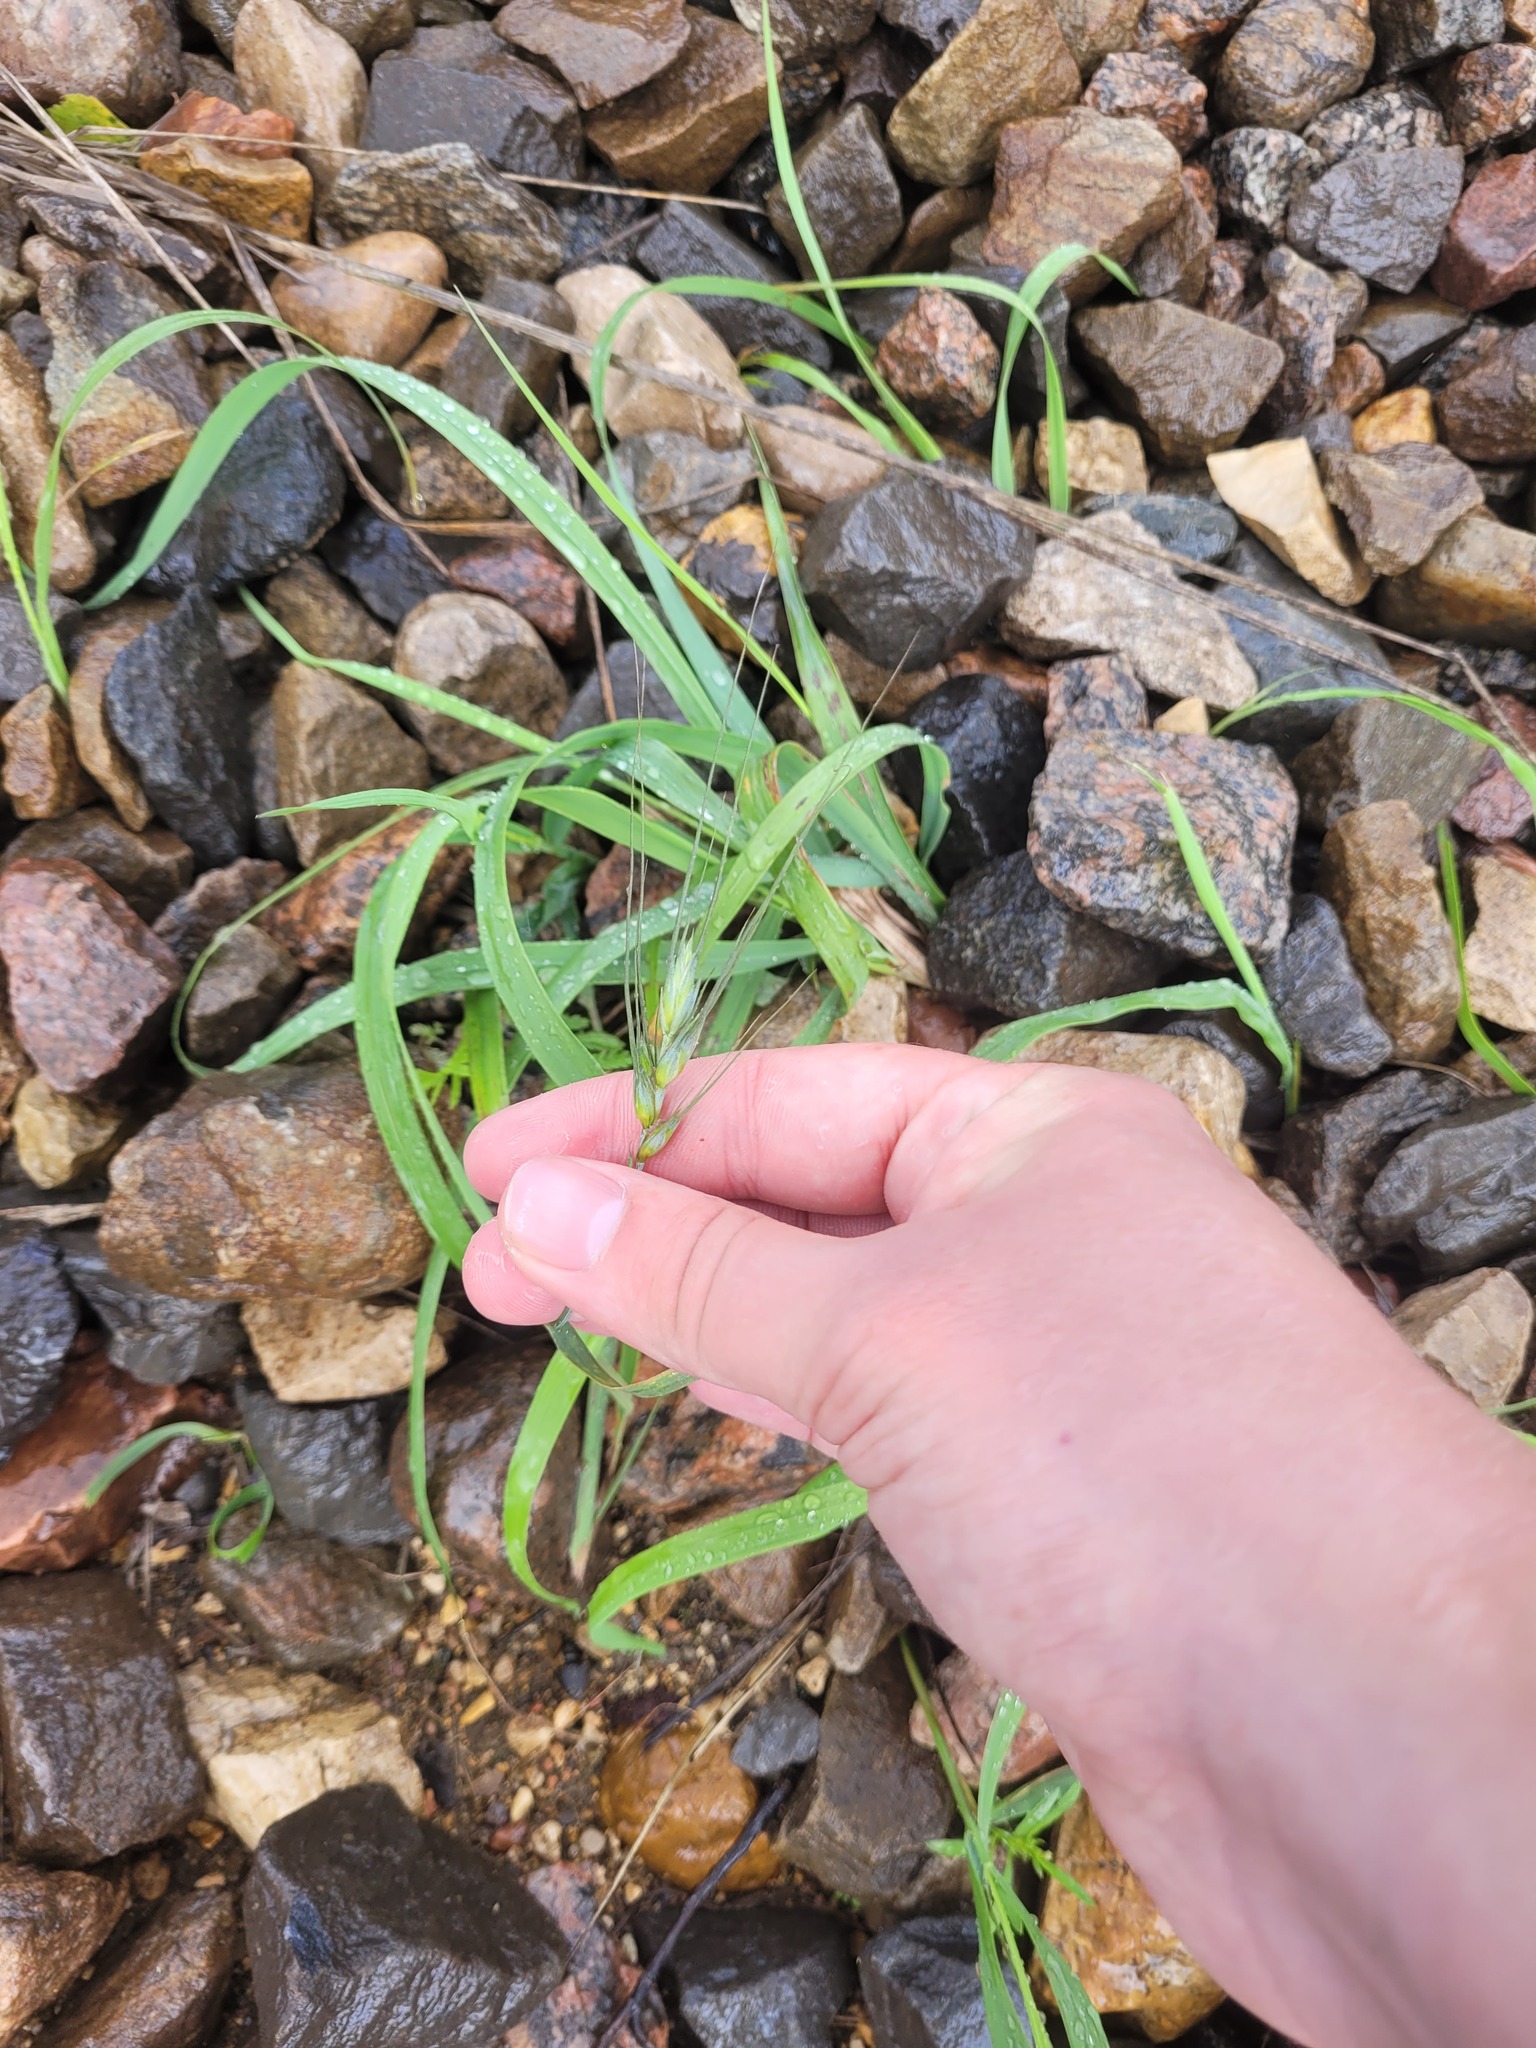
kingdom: Plantae
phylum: Tracheophyta
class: Liliopsida
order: Poales
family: Poaceae
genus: Triticum
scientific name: Triticum aestivum
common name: Common wheat
